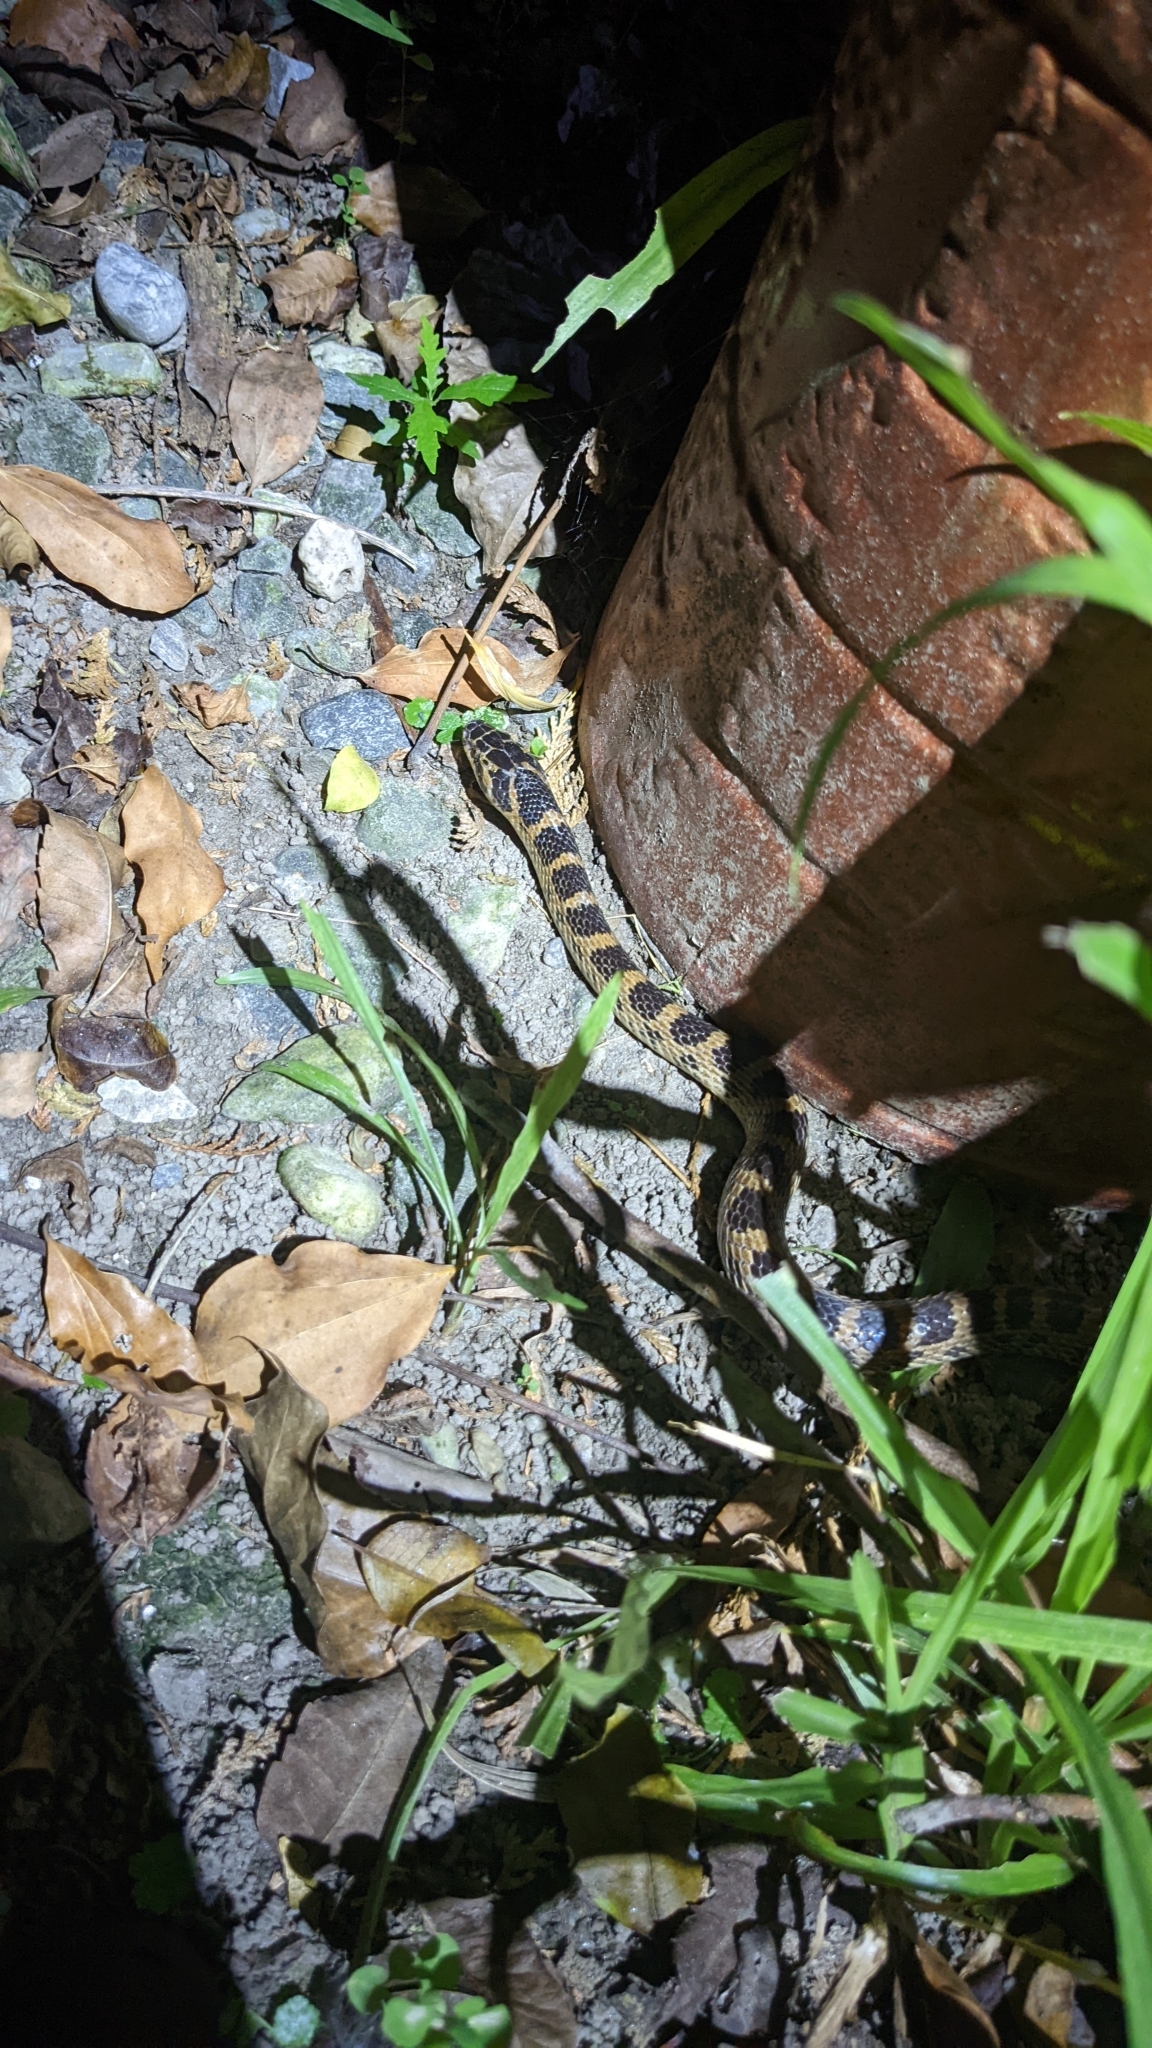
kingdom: Animalia
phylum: Chordata
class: Squamata
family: Colubridae
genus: Lycodon
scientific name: Lycodon rufozonatus
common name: Red-banded snake
